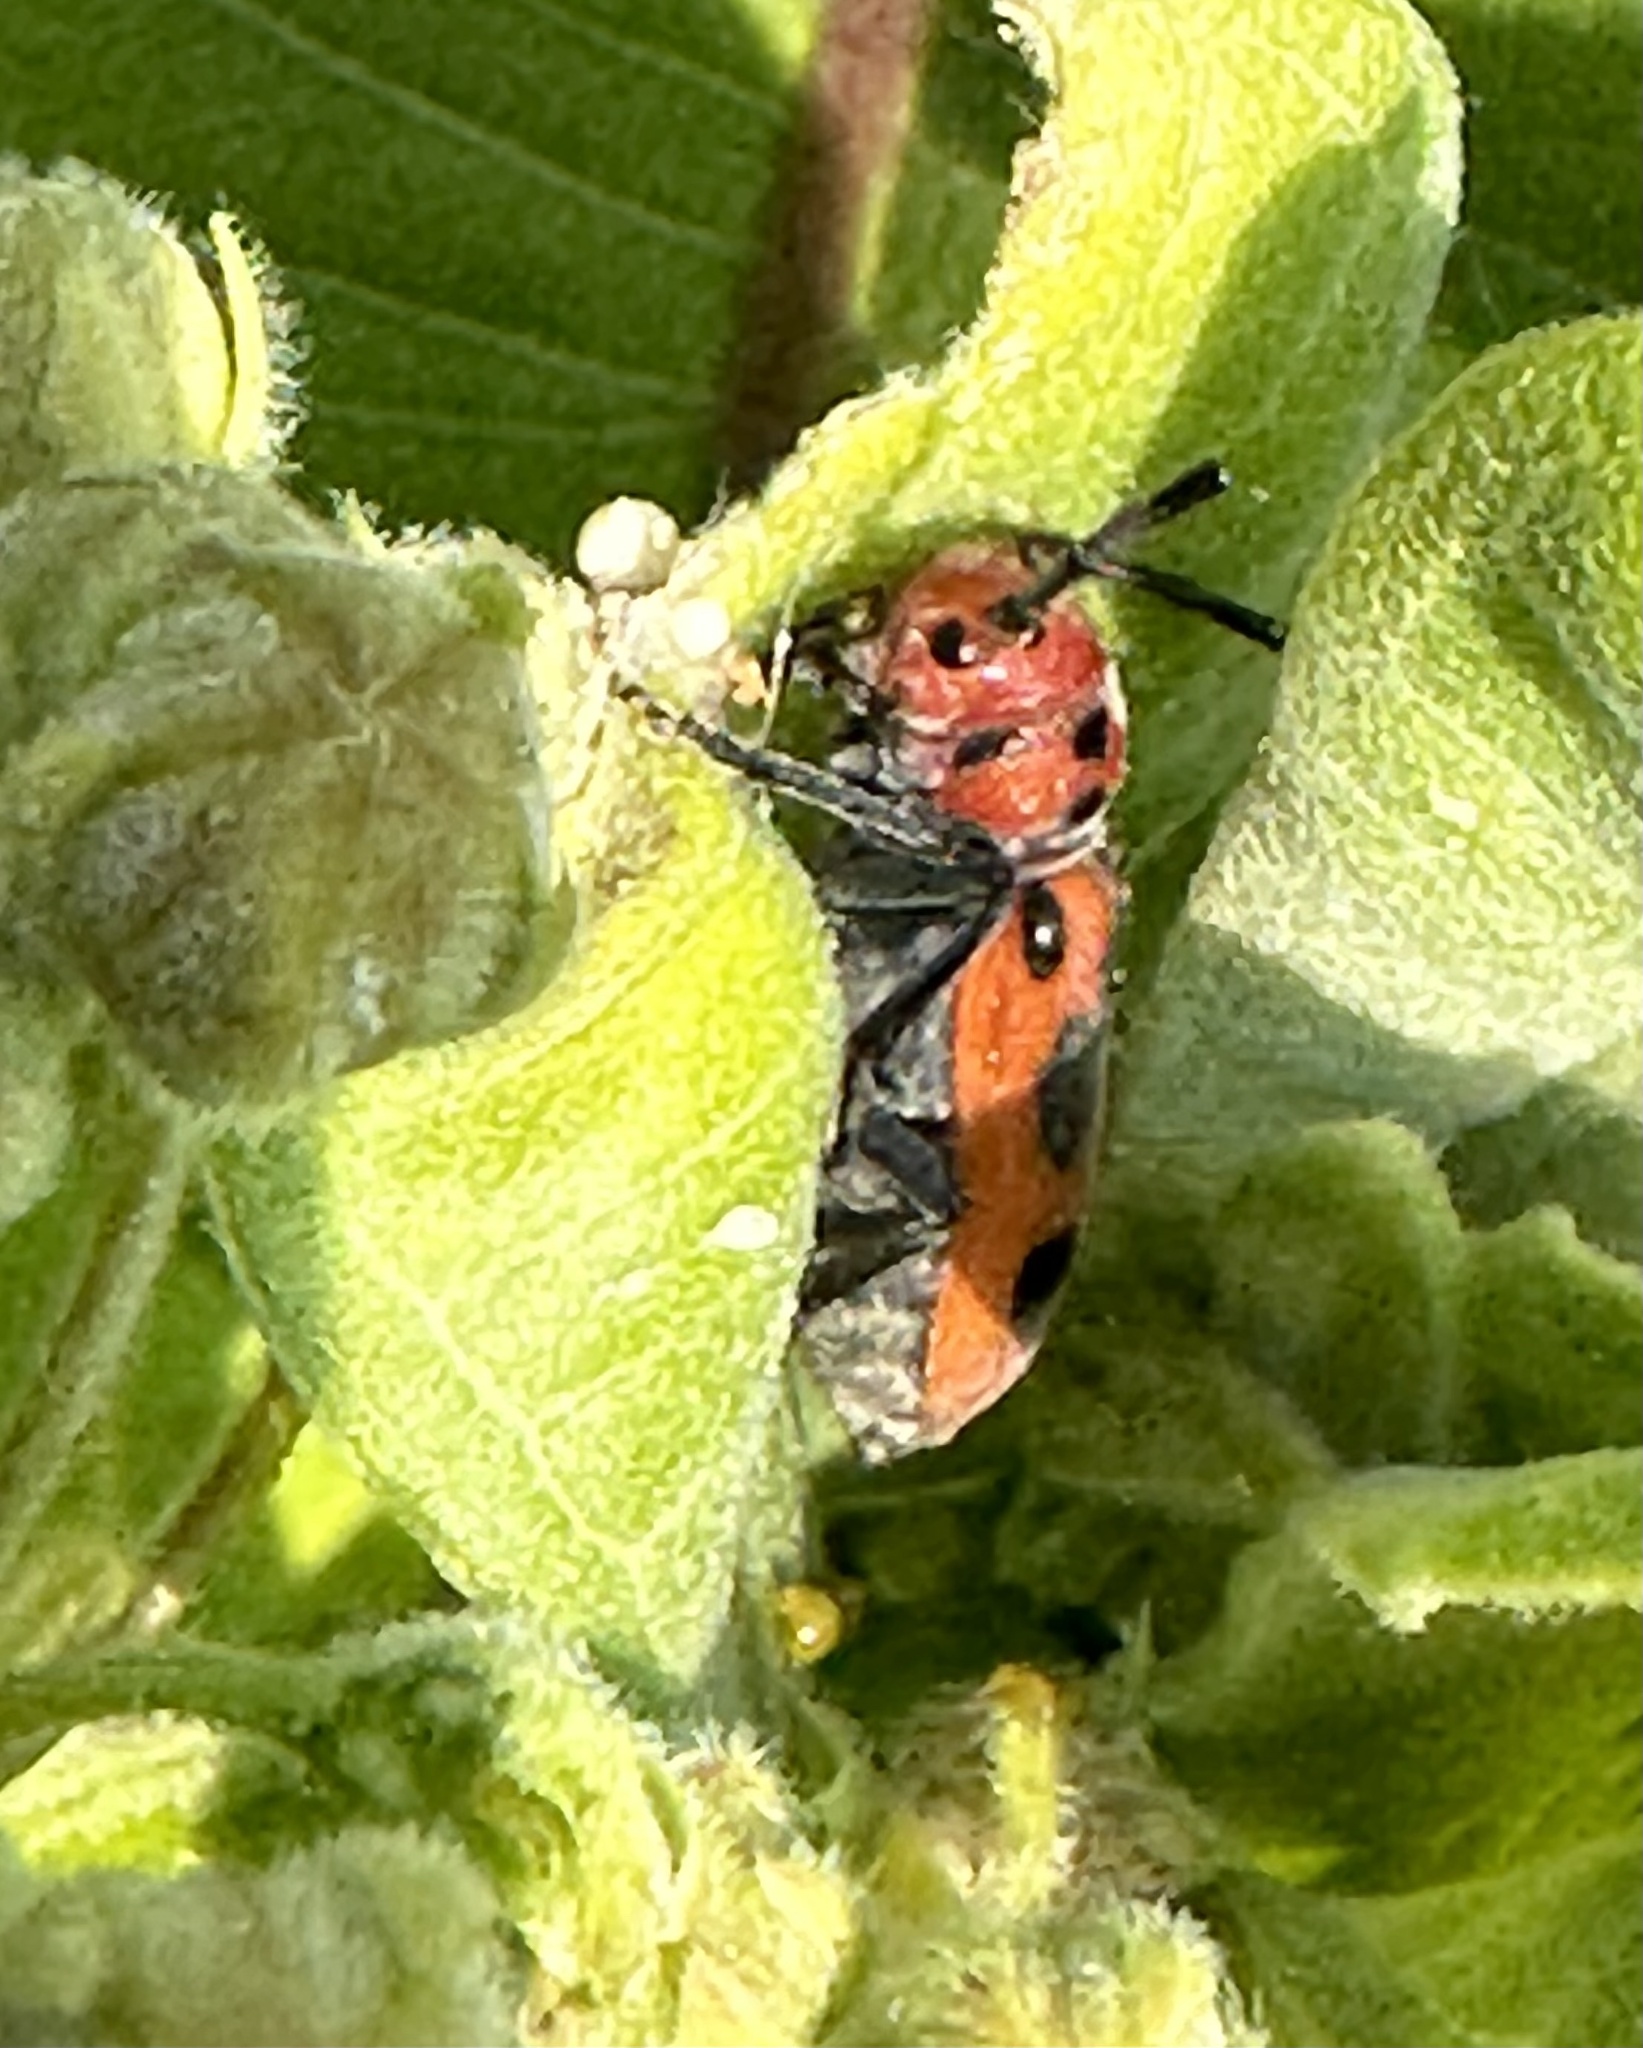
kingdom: Animalia
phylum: Arthropoda
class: Insecta
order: Coleoptera
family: Cerambycidae
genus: Tetraopes
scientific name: Tetraopes tetrophthalmus
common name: Red milkweed beetle
